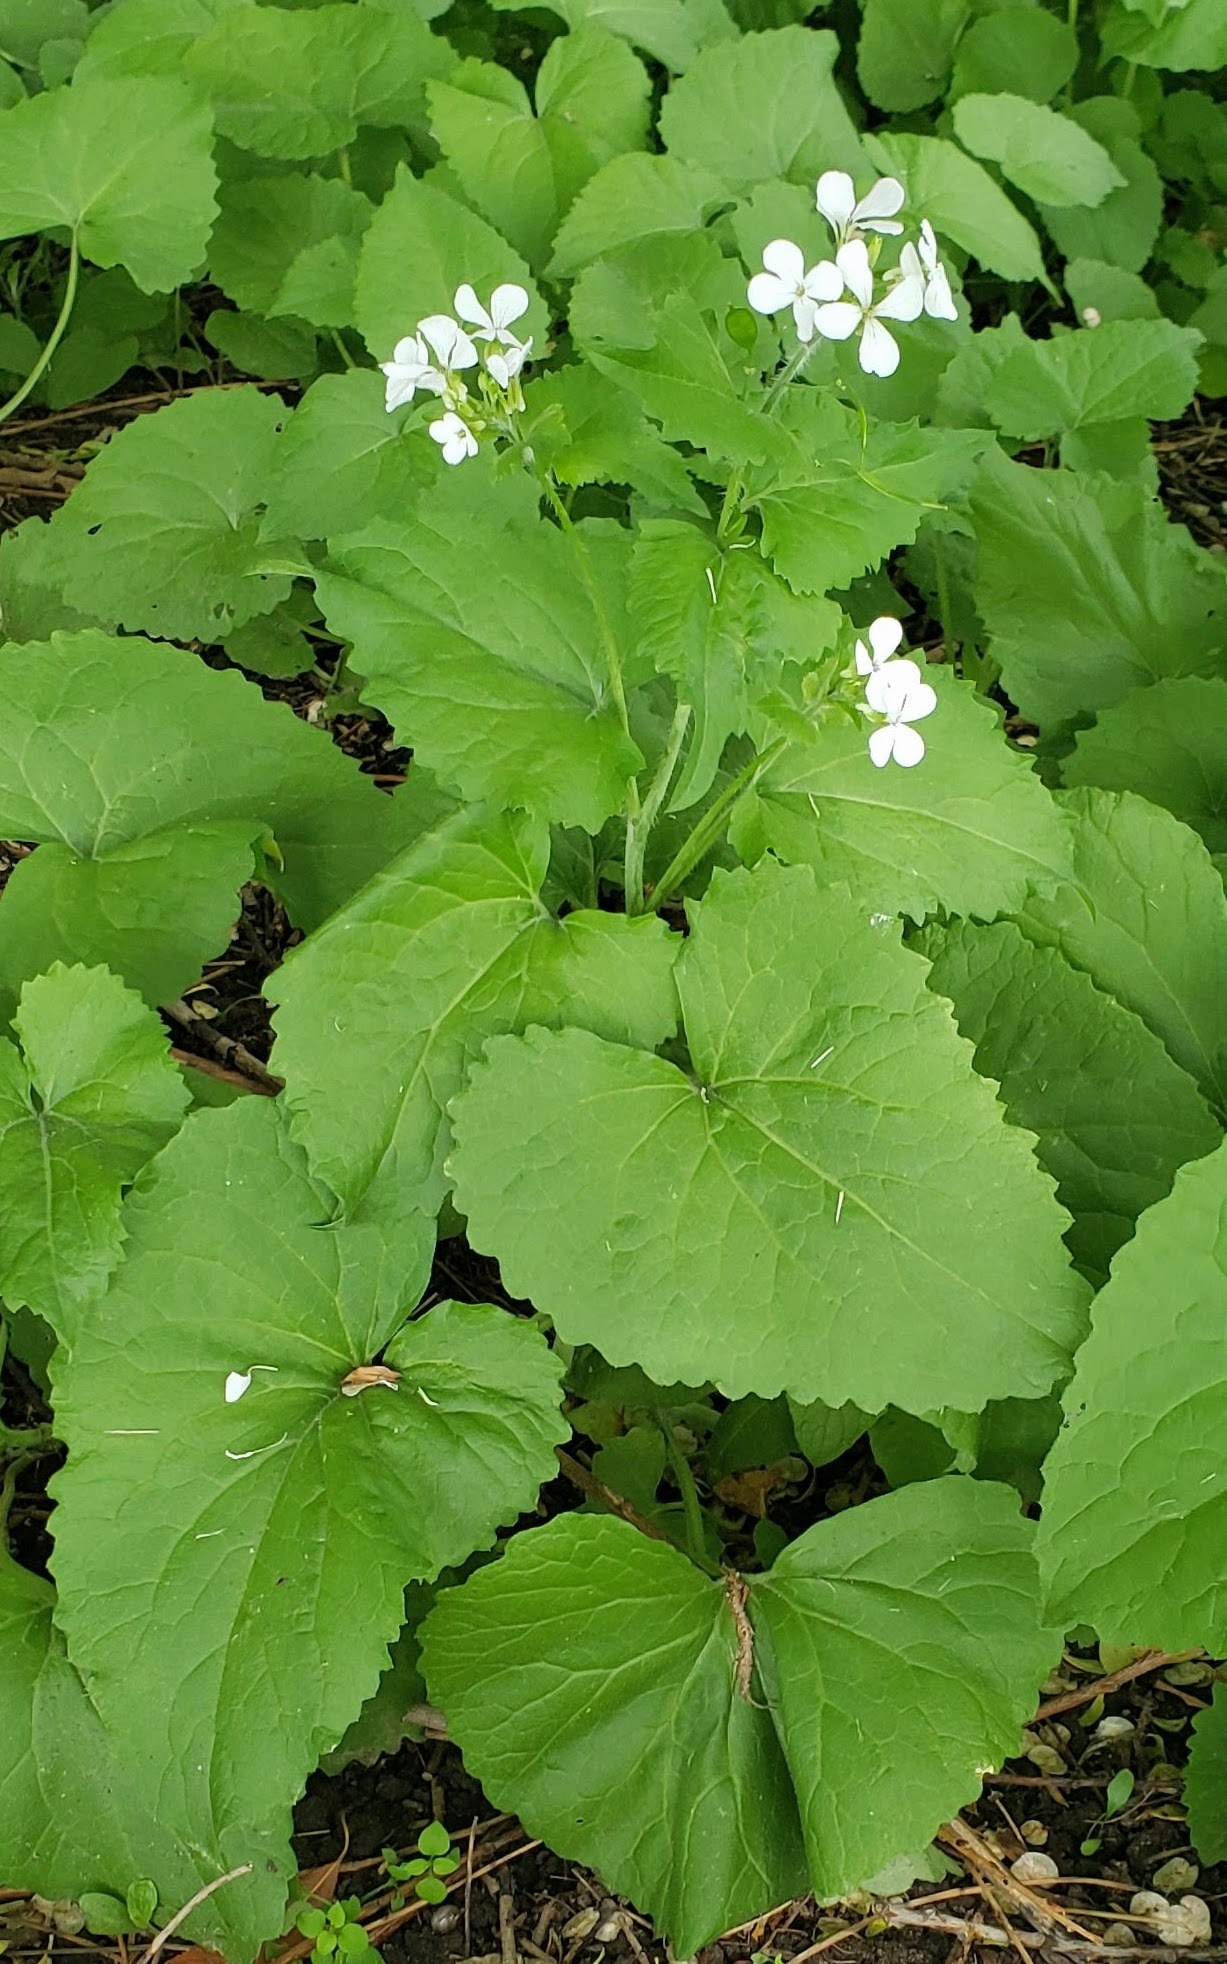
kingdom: Plantae
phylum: Tracheophyta
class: Magnoliopsida
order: Brassicales
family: Brassicaceae
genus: Alliaria
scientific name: Alliaria petiolata
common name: Garlic mustard
